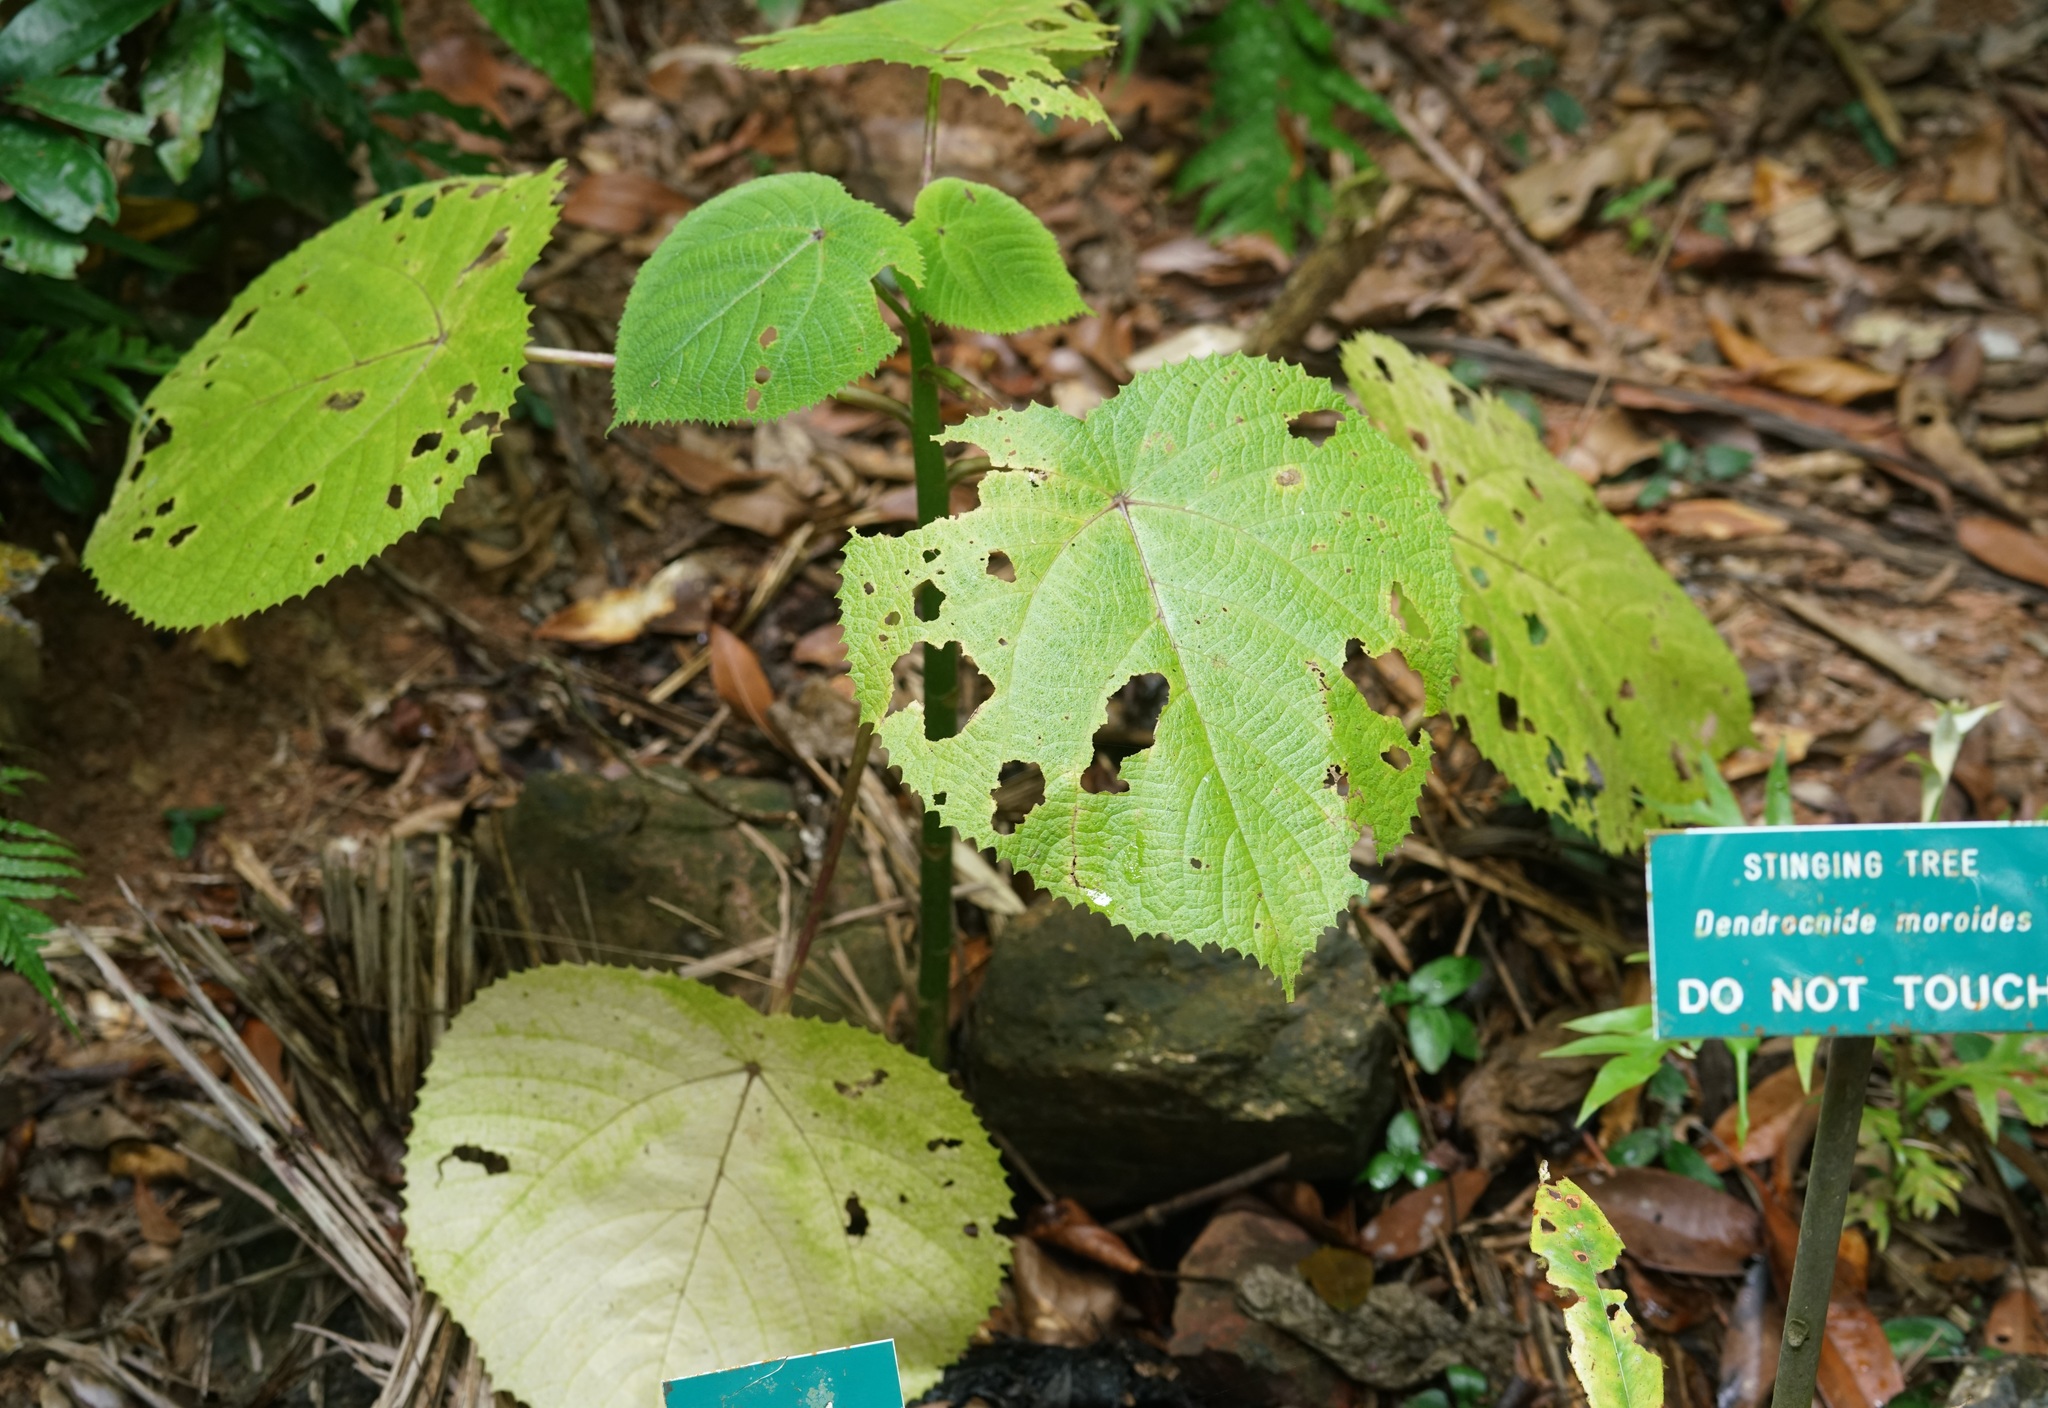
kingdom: Plantae
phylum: Tracheophyta
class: Magnoliopsida
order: Rosales
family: Urticaceae
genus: Dendrocnide
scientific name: Dendrocnide moroides
